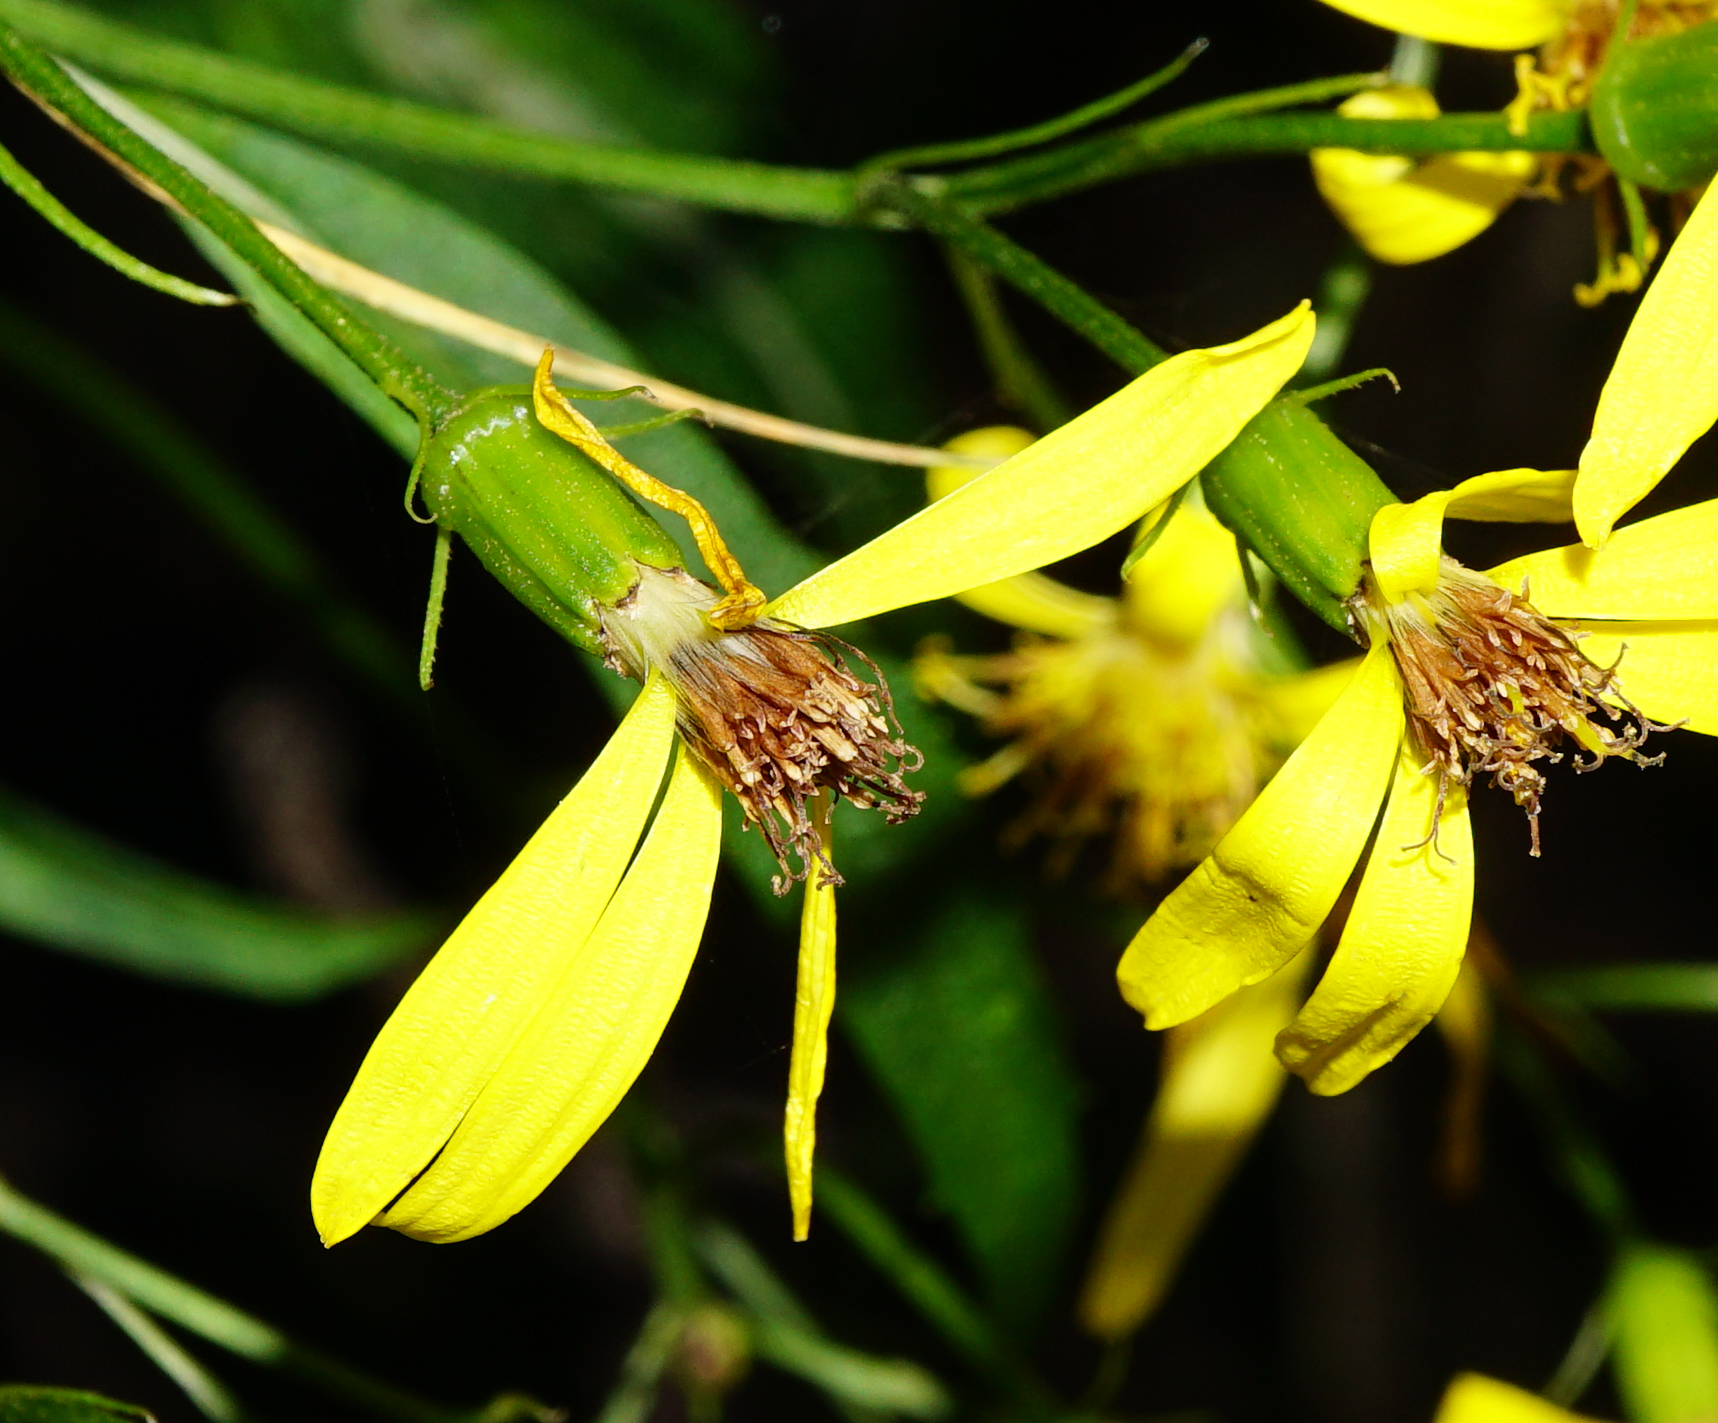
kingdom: Plantae
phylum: Tracheophyta
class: Magnoliopsida
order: Asterales
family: Asteraceae
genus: Senecio
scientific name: Senecio ovatus
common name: Wood ragwort
